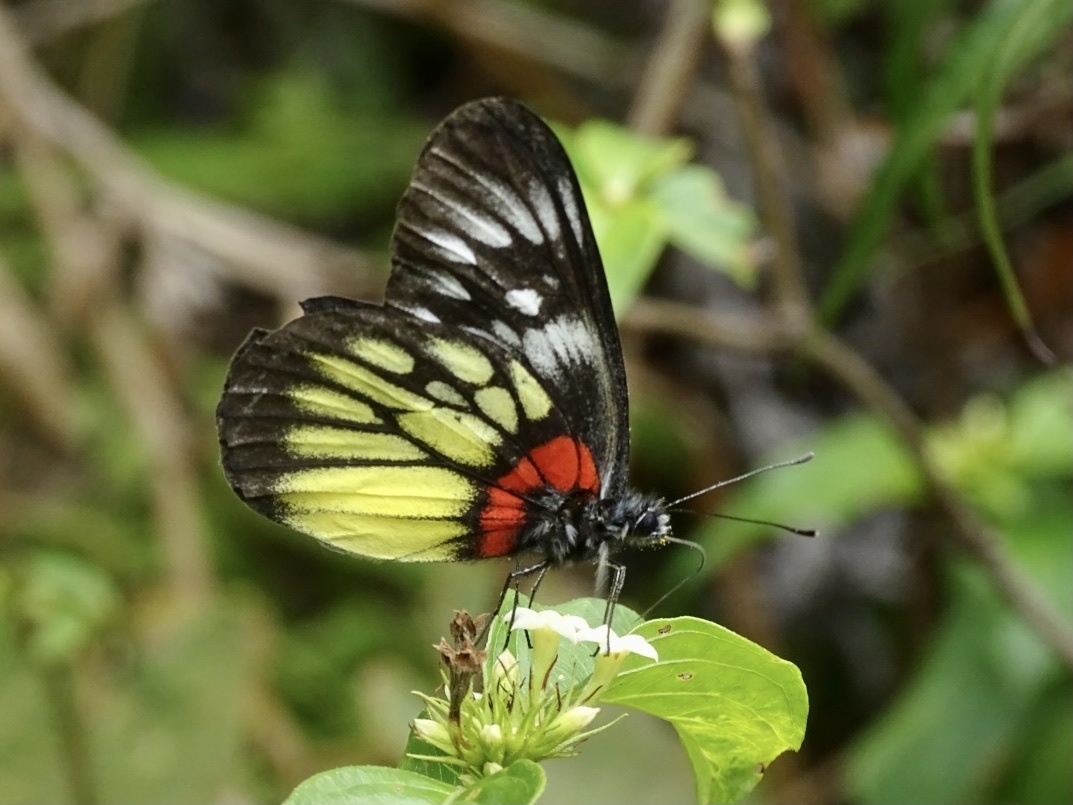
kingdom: Animalia
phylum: Arthropoda
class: Insecta
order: Lepidoptera
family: Pieridae
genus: Delias
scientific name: Delias pasithoe
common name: Red-base jezebel
